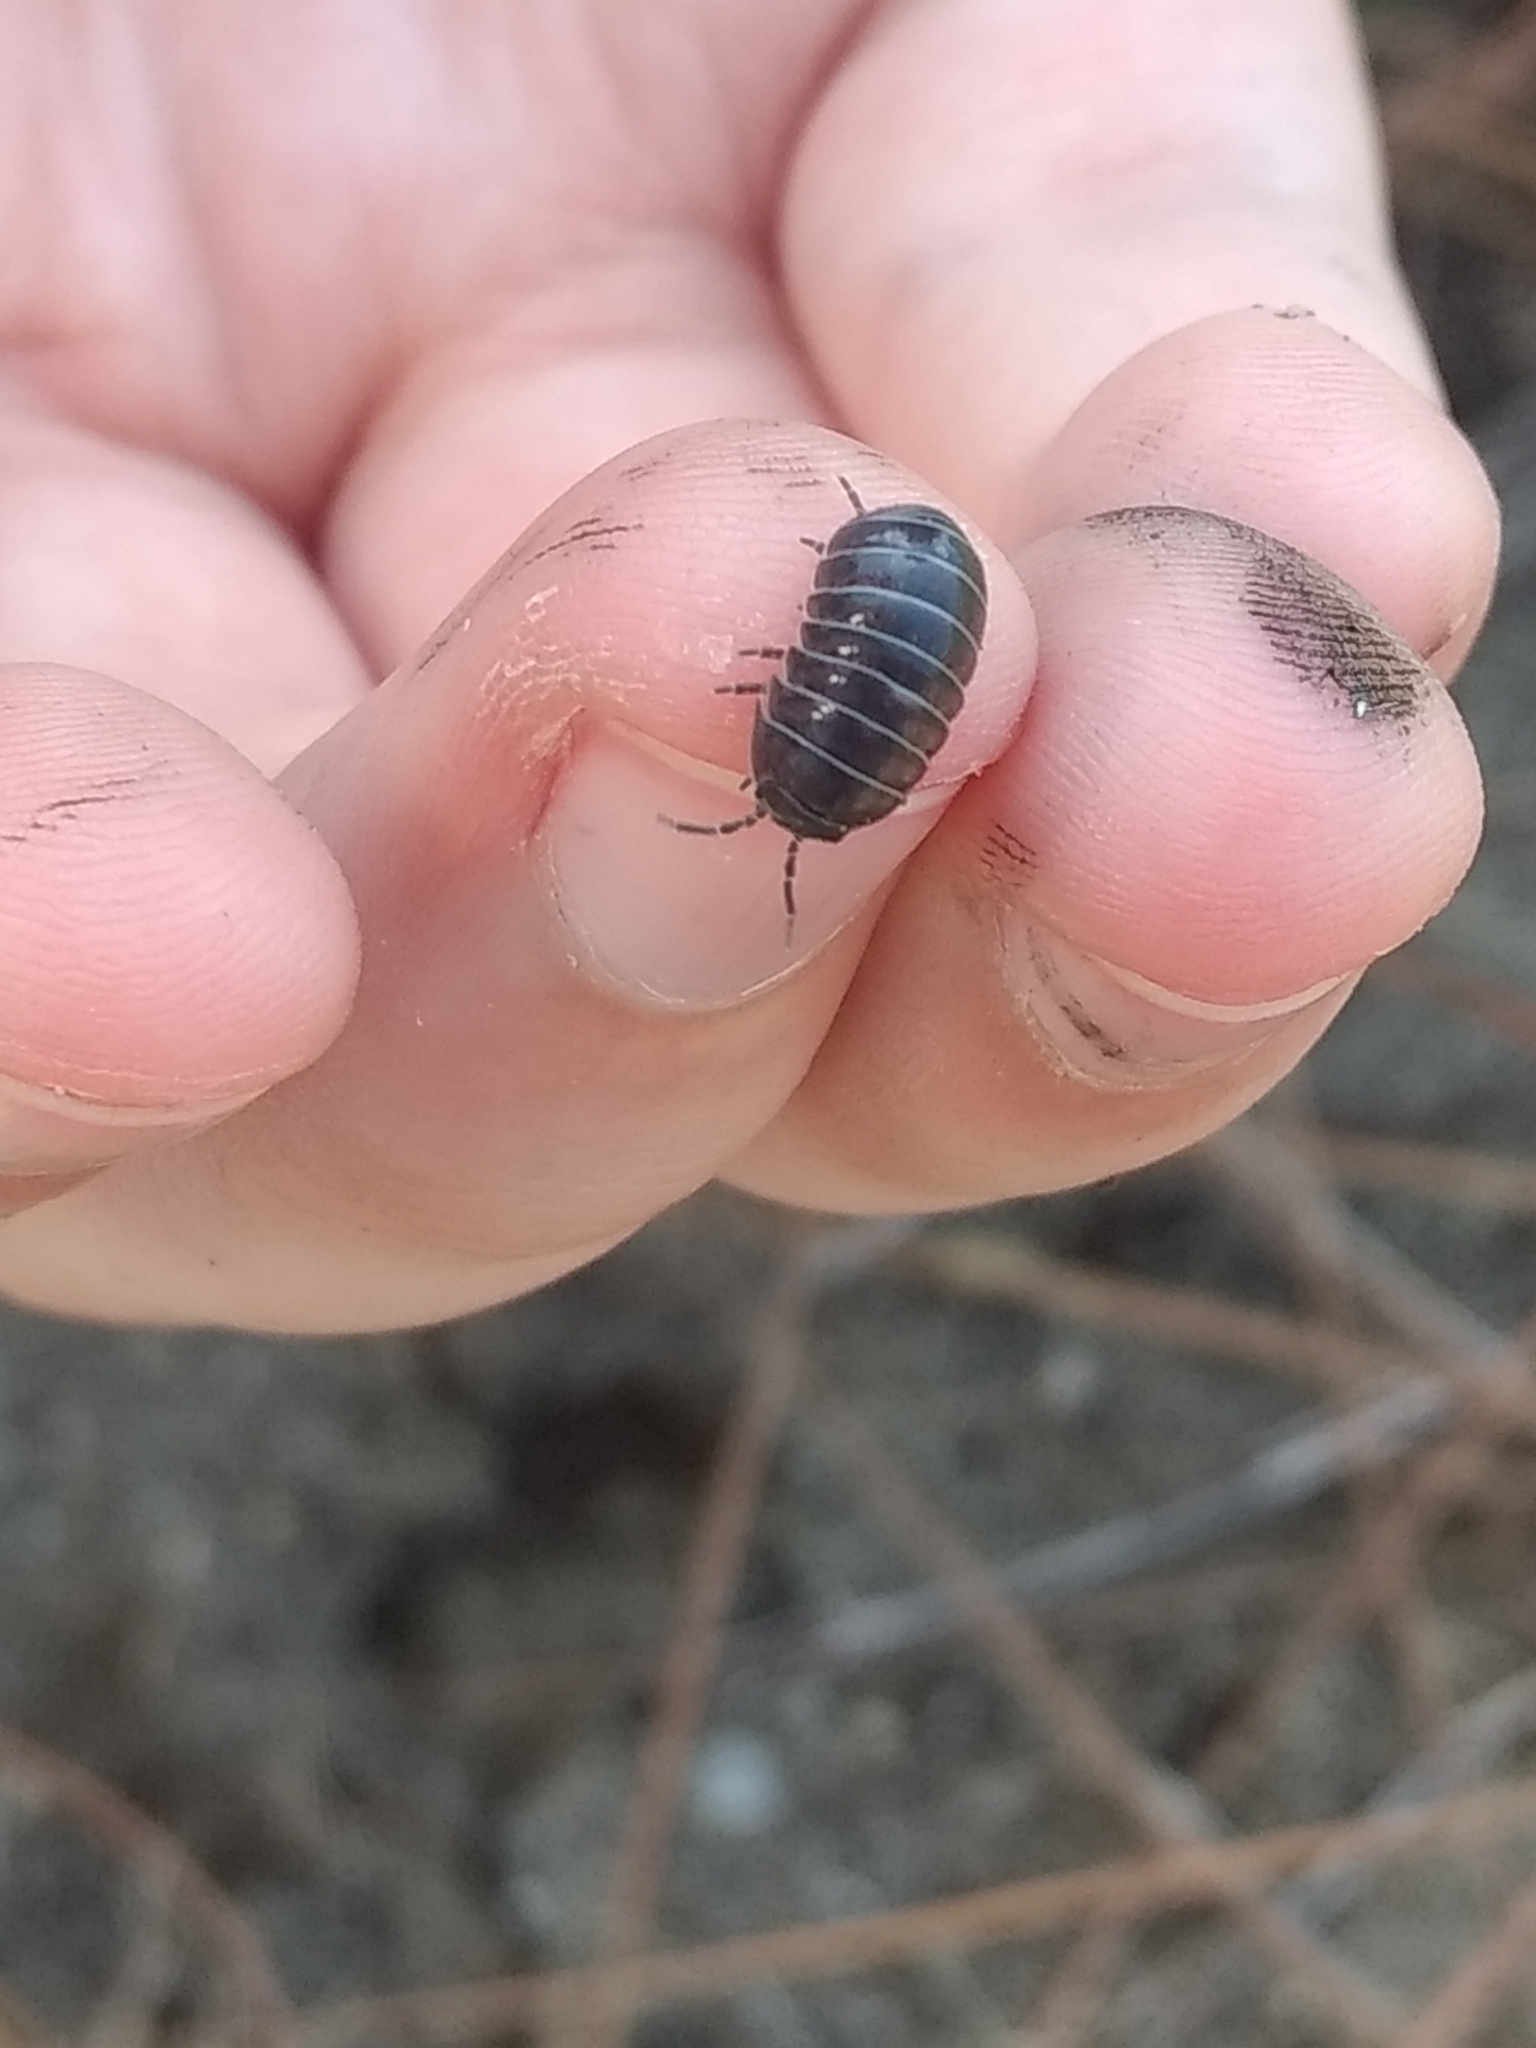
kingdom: Animalia
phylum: Arthropoda
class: Malacostraca
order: Isopoda
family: Armadillidiidae
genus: Armadillidium
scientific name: Armadillidium vulgare
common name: Common pill woodlouse
